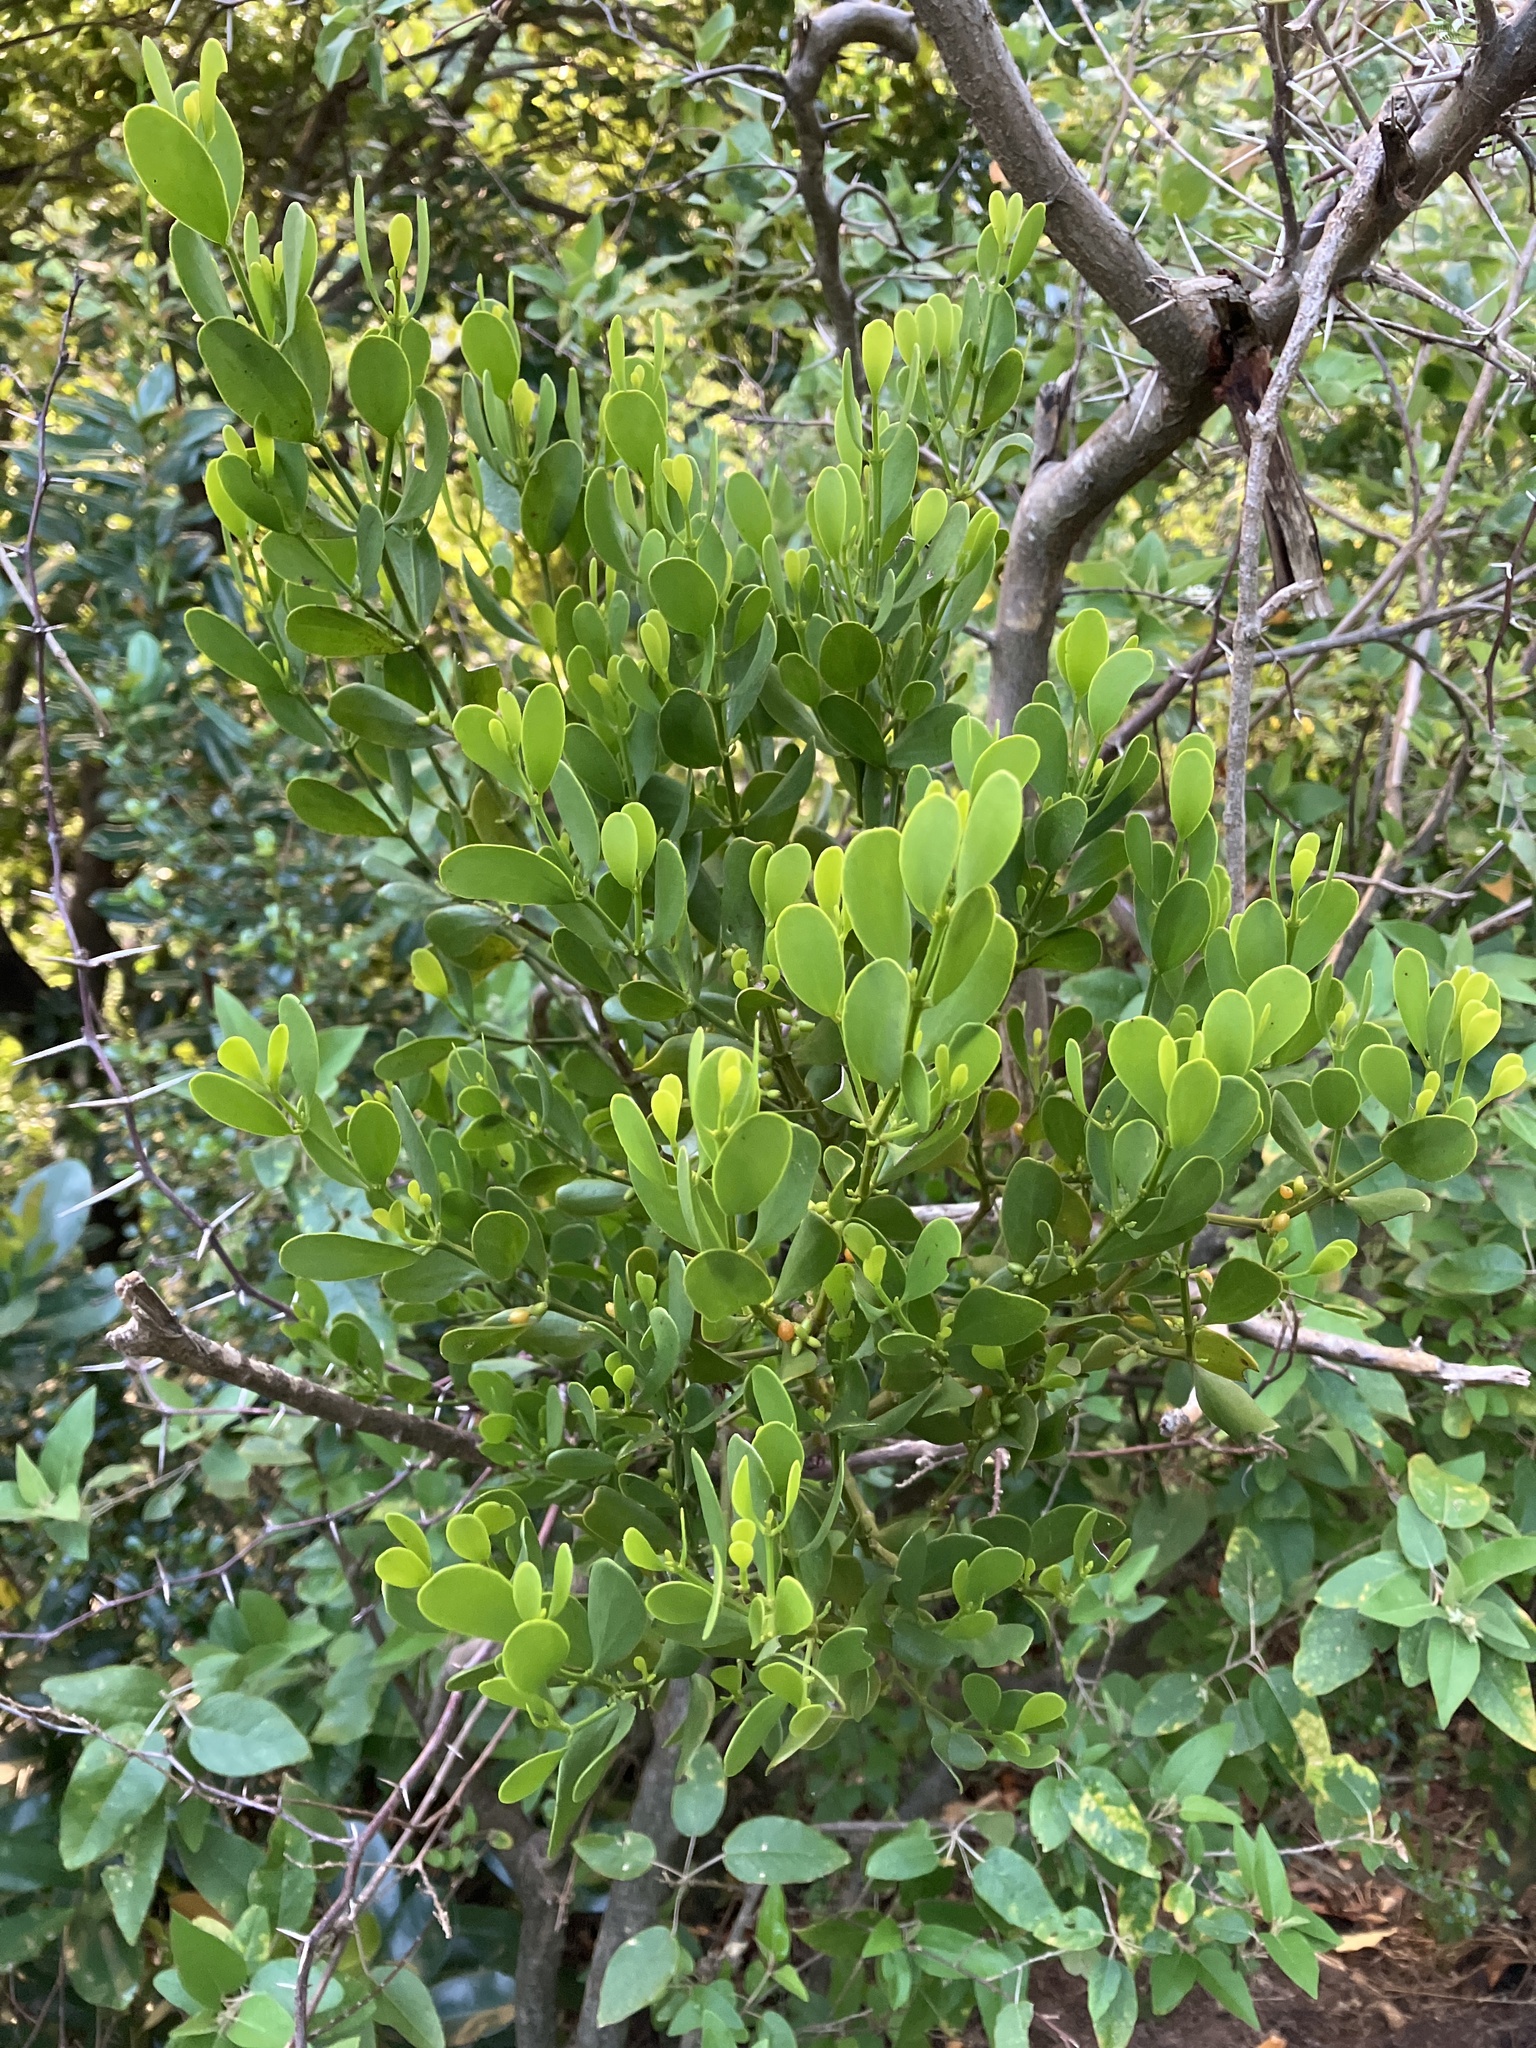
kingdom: Plantae
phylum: Tracheophyta
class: Magnoliopsida
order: Santalales
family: Viscaceae
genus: Phoradendron
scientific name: Phoradendron trinervium
